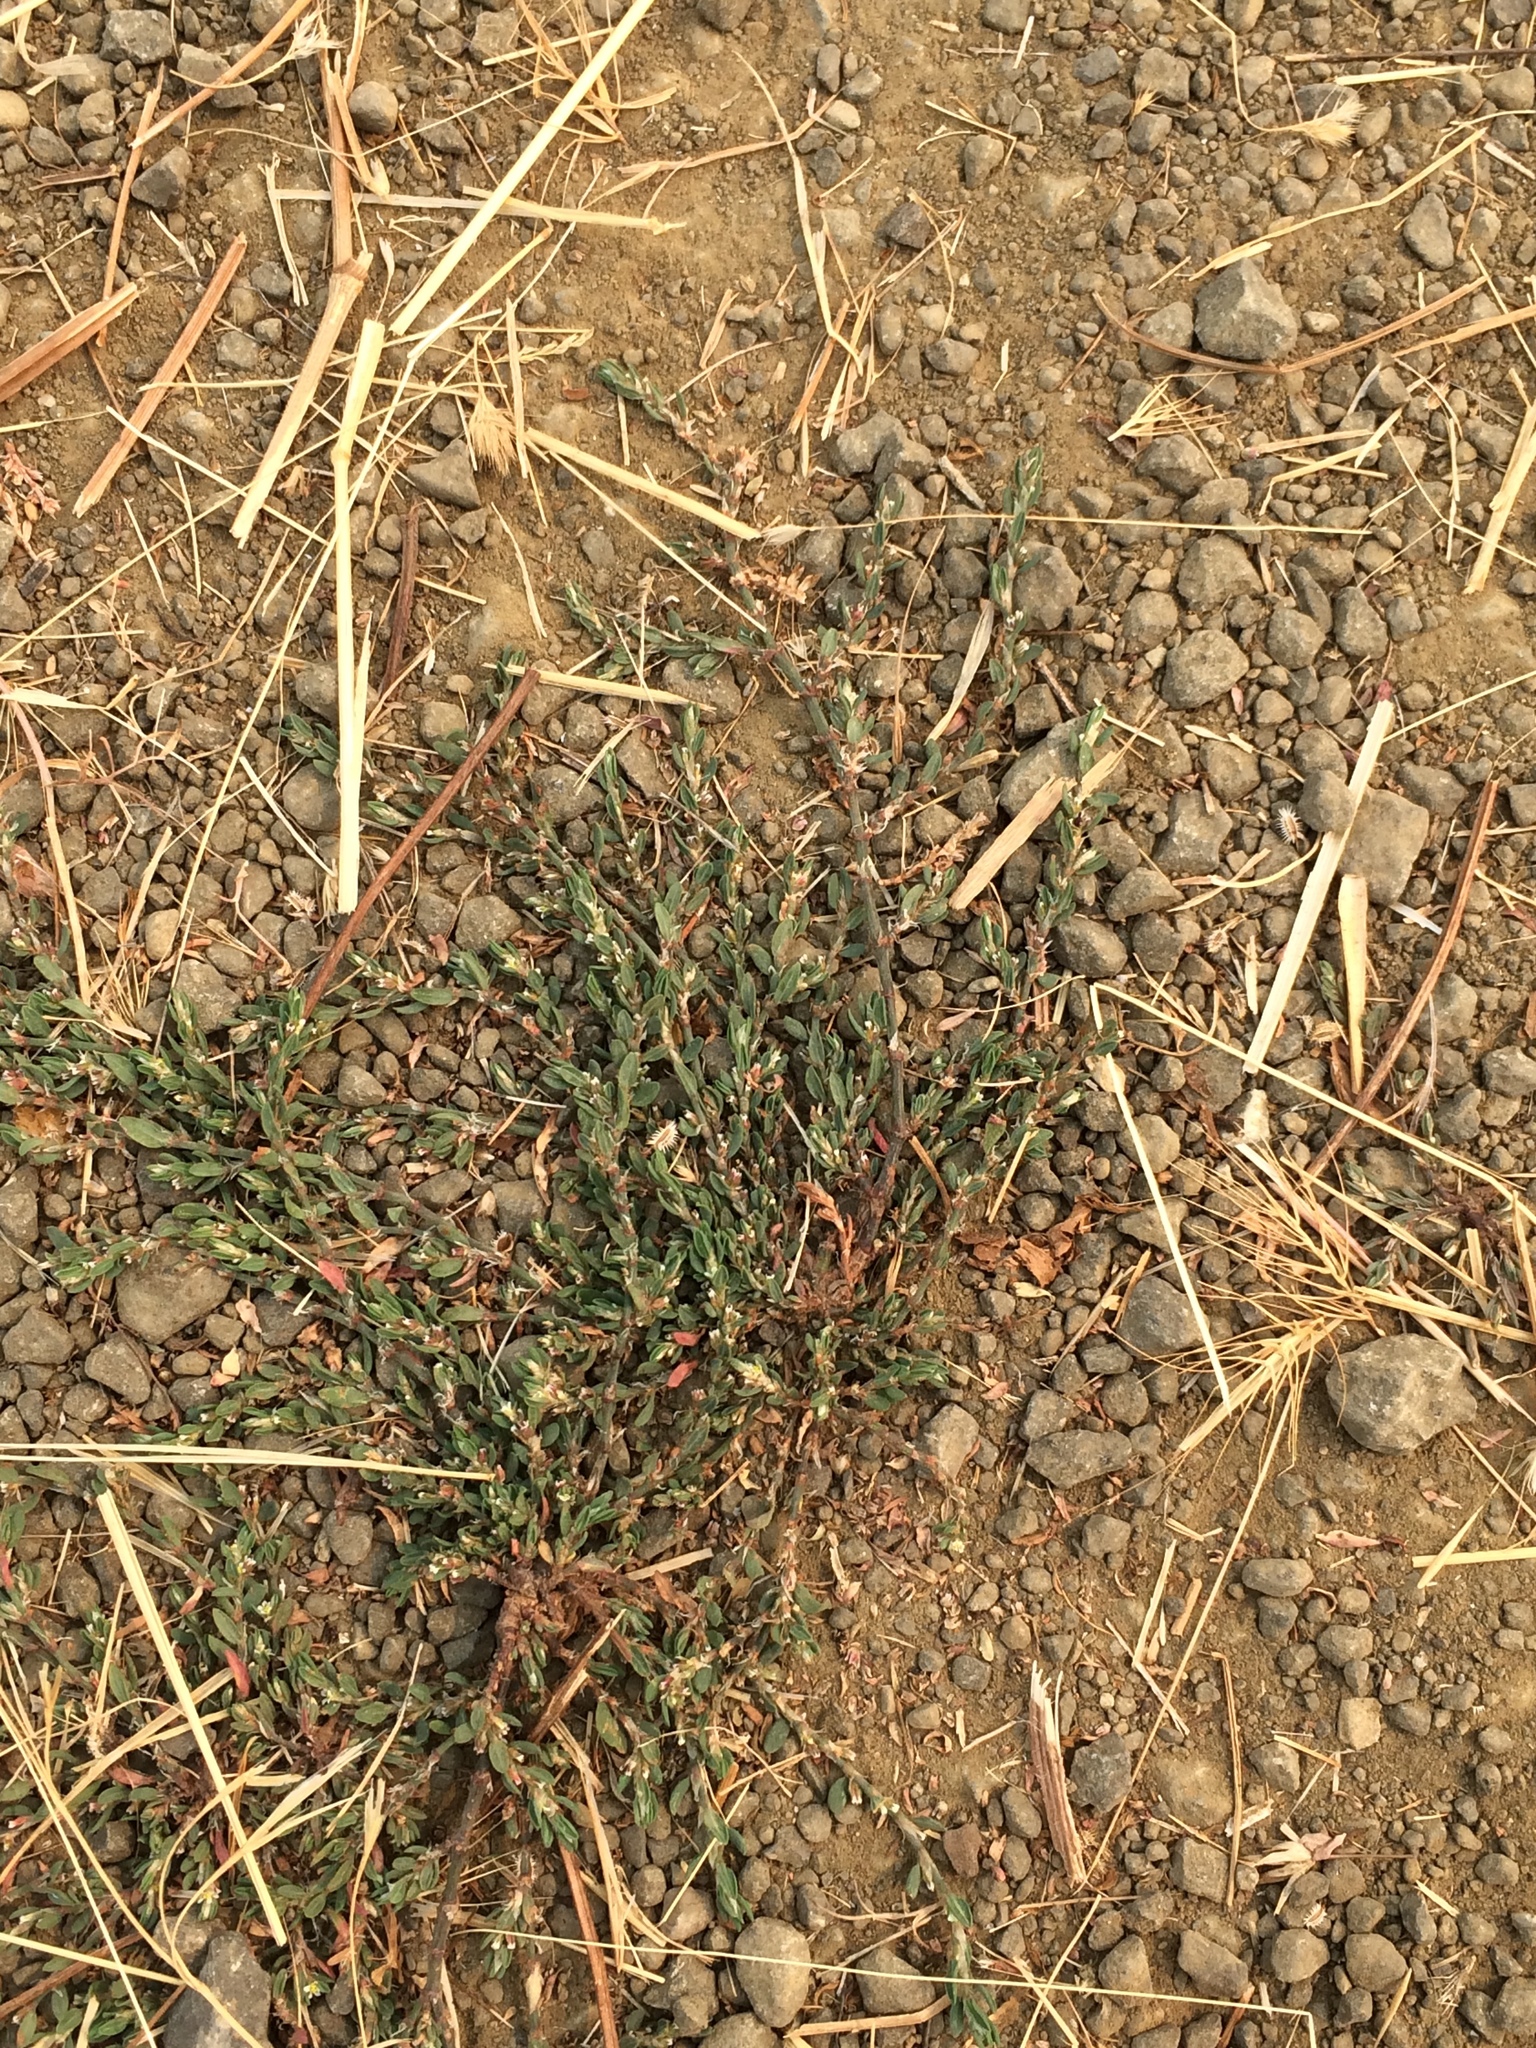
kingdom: Plantae
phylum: Tracheophyta
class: Magnoliopsida
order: Caryophyllales
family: Polygonaceae
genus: Polygonum
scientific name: Polygonum aviculare
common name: Prostrate knotweed
